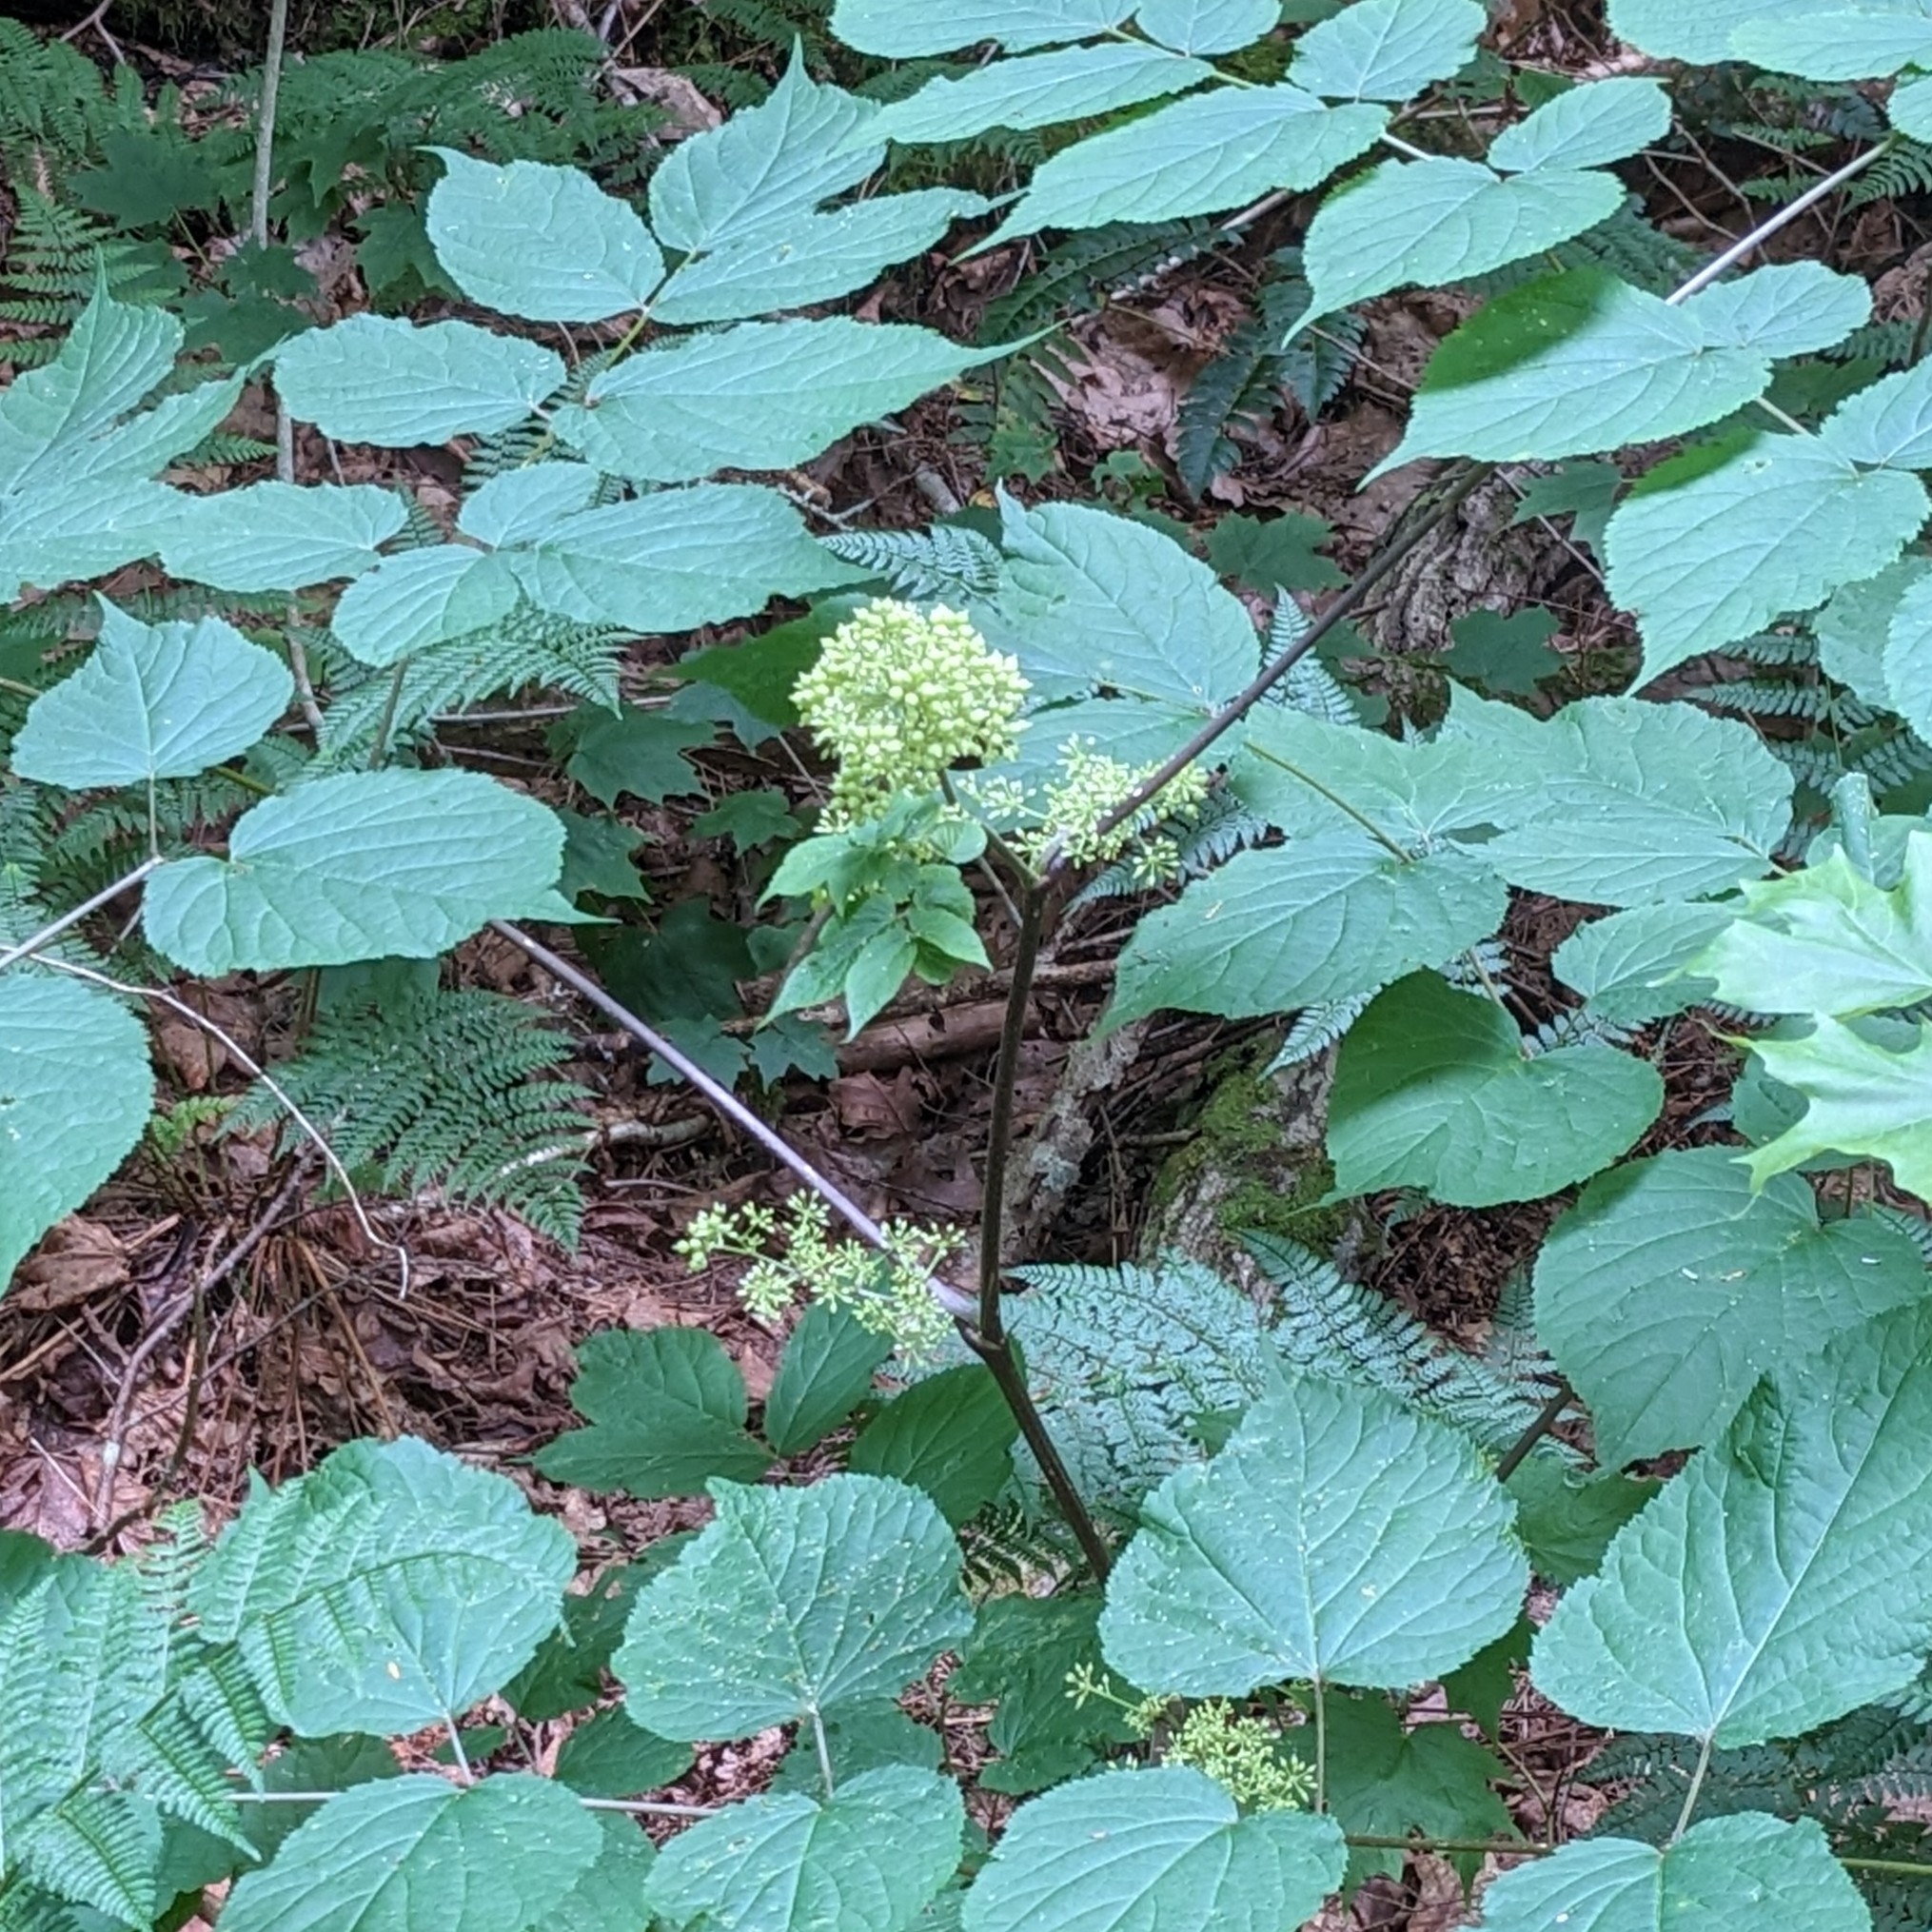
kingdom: Plantae
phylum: Tracheophyta
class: Magnoliopsida
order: Apiales
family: Araliaceae
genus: Aralia
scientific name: Aralia racemosa
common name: American-spikenard
